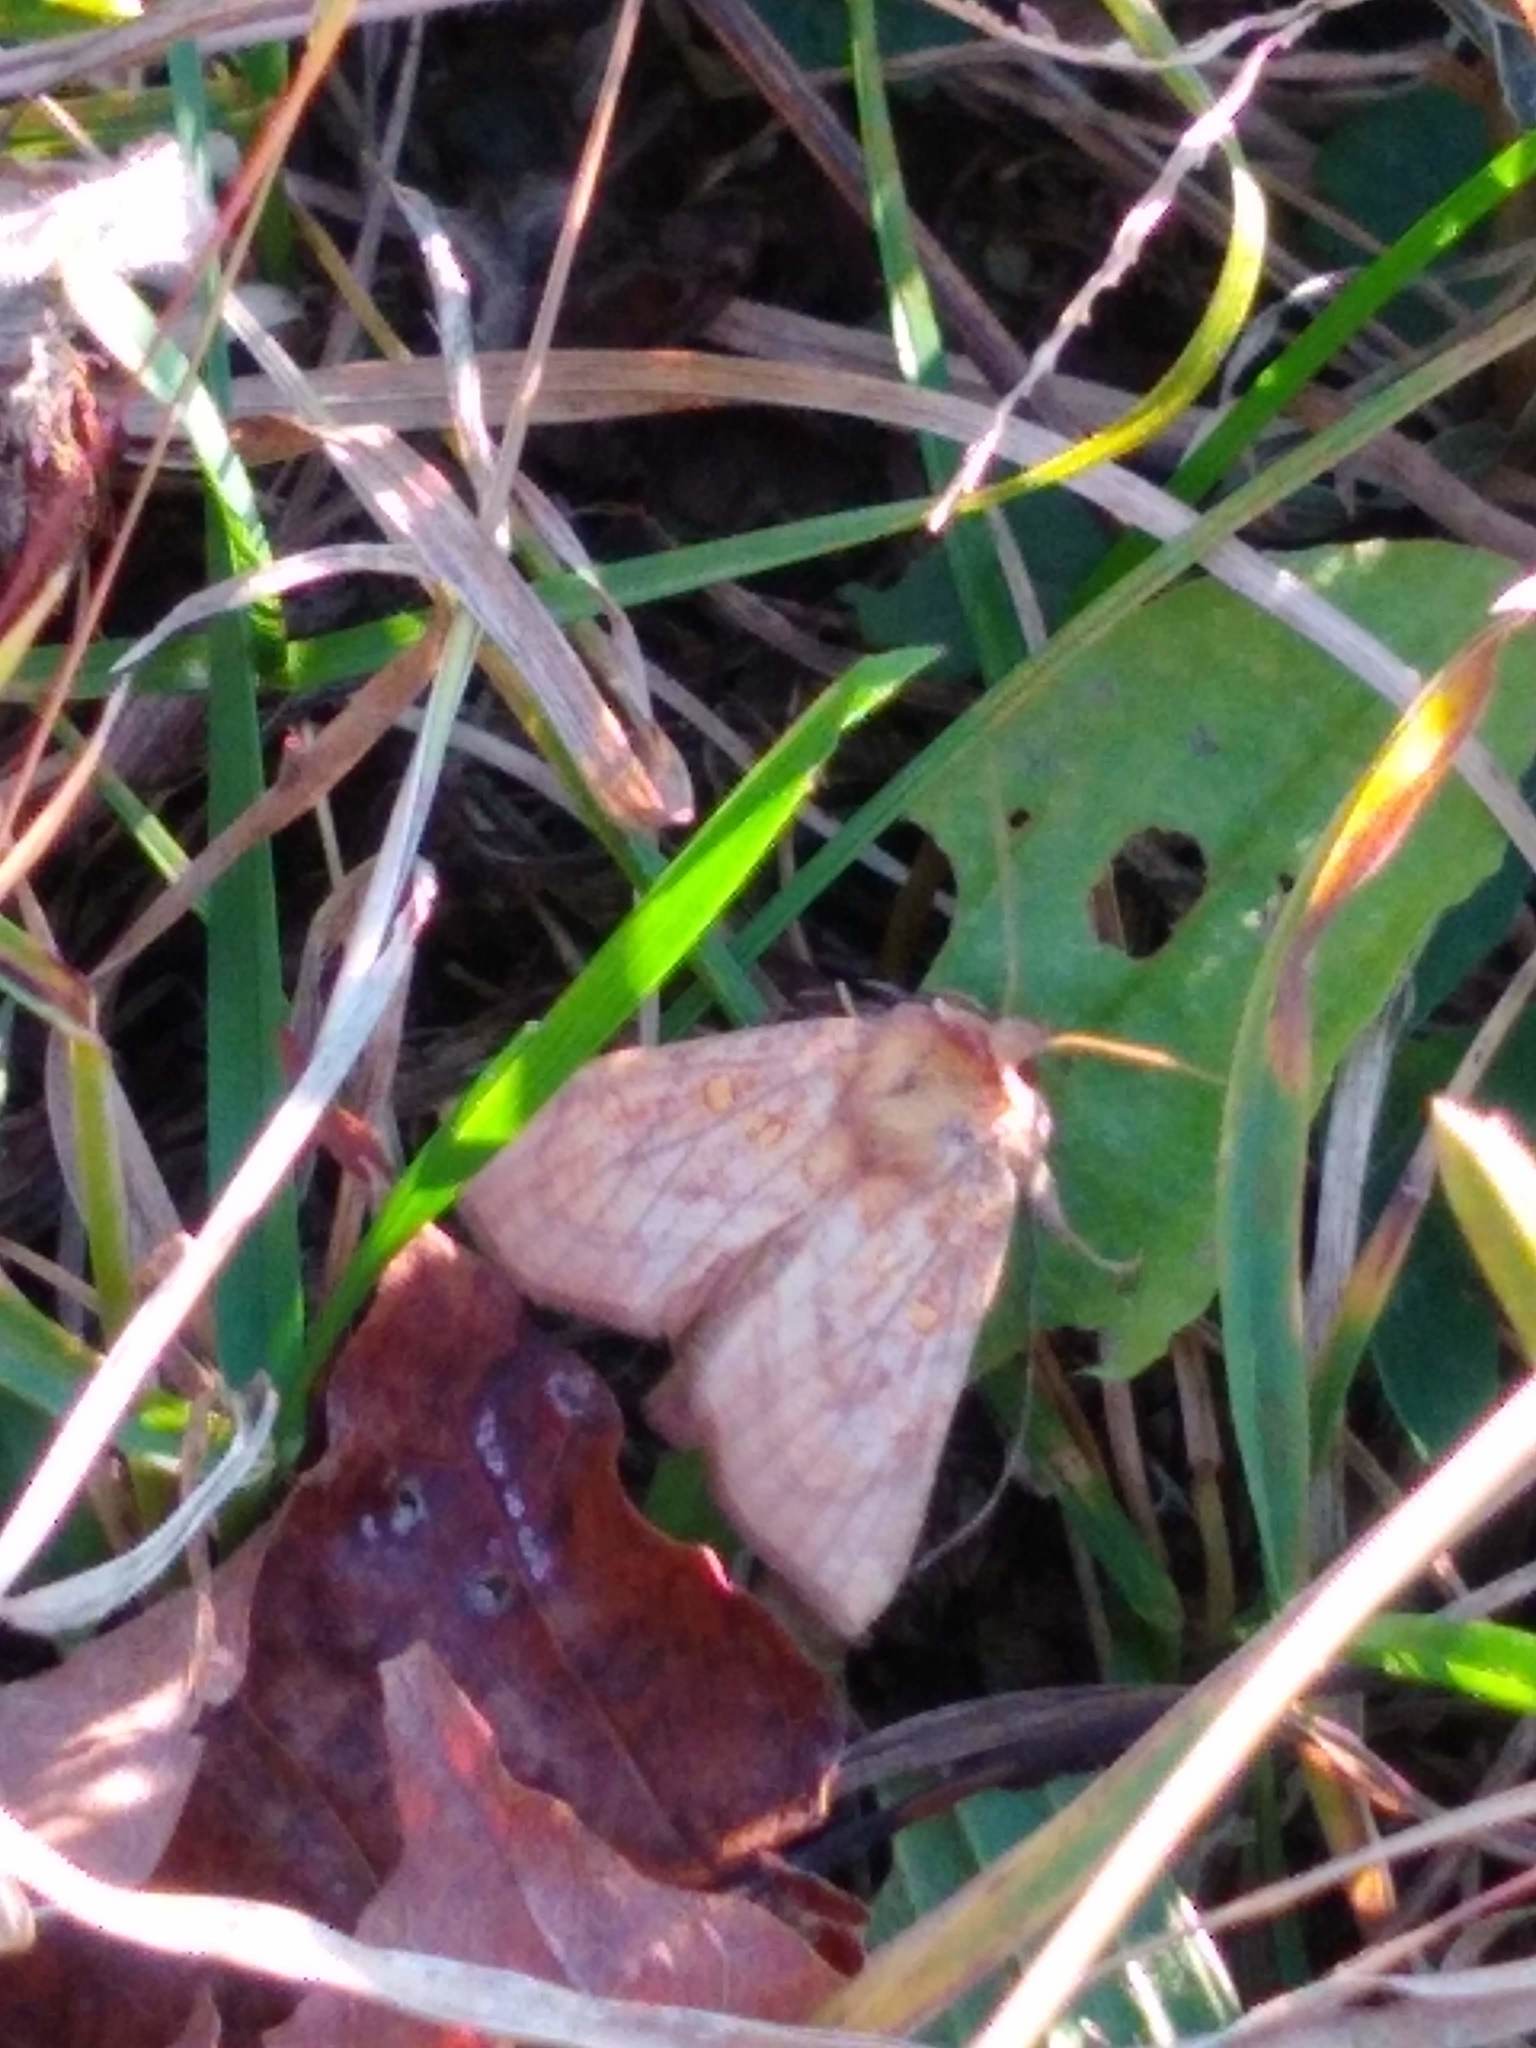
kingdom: Animalia
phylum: Arthropoda
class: Insecta
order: Lepidoptera
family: Noctuidae
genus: Papaipema
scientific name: Papaipema inquaesita
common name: Sensitive fern borer moth
